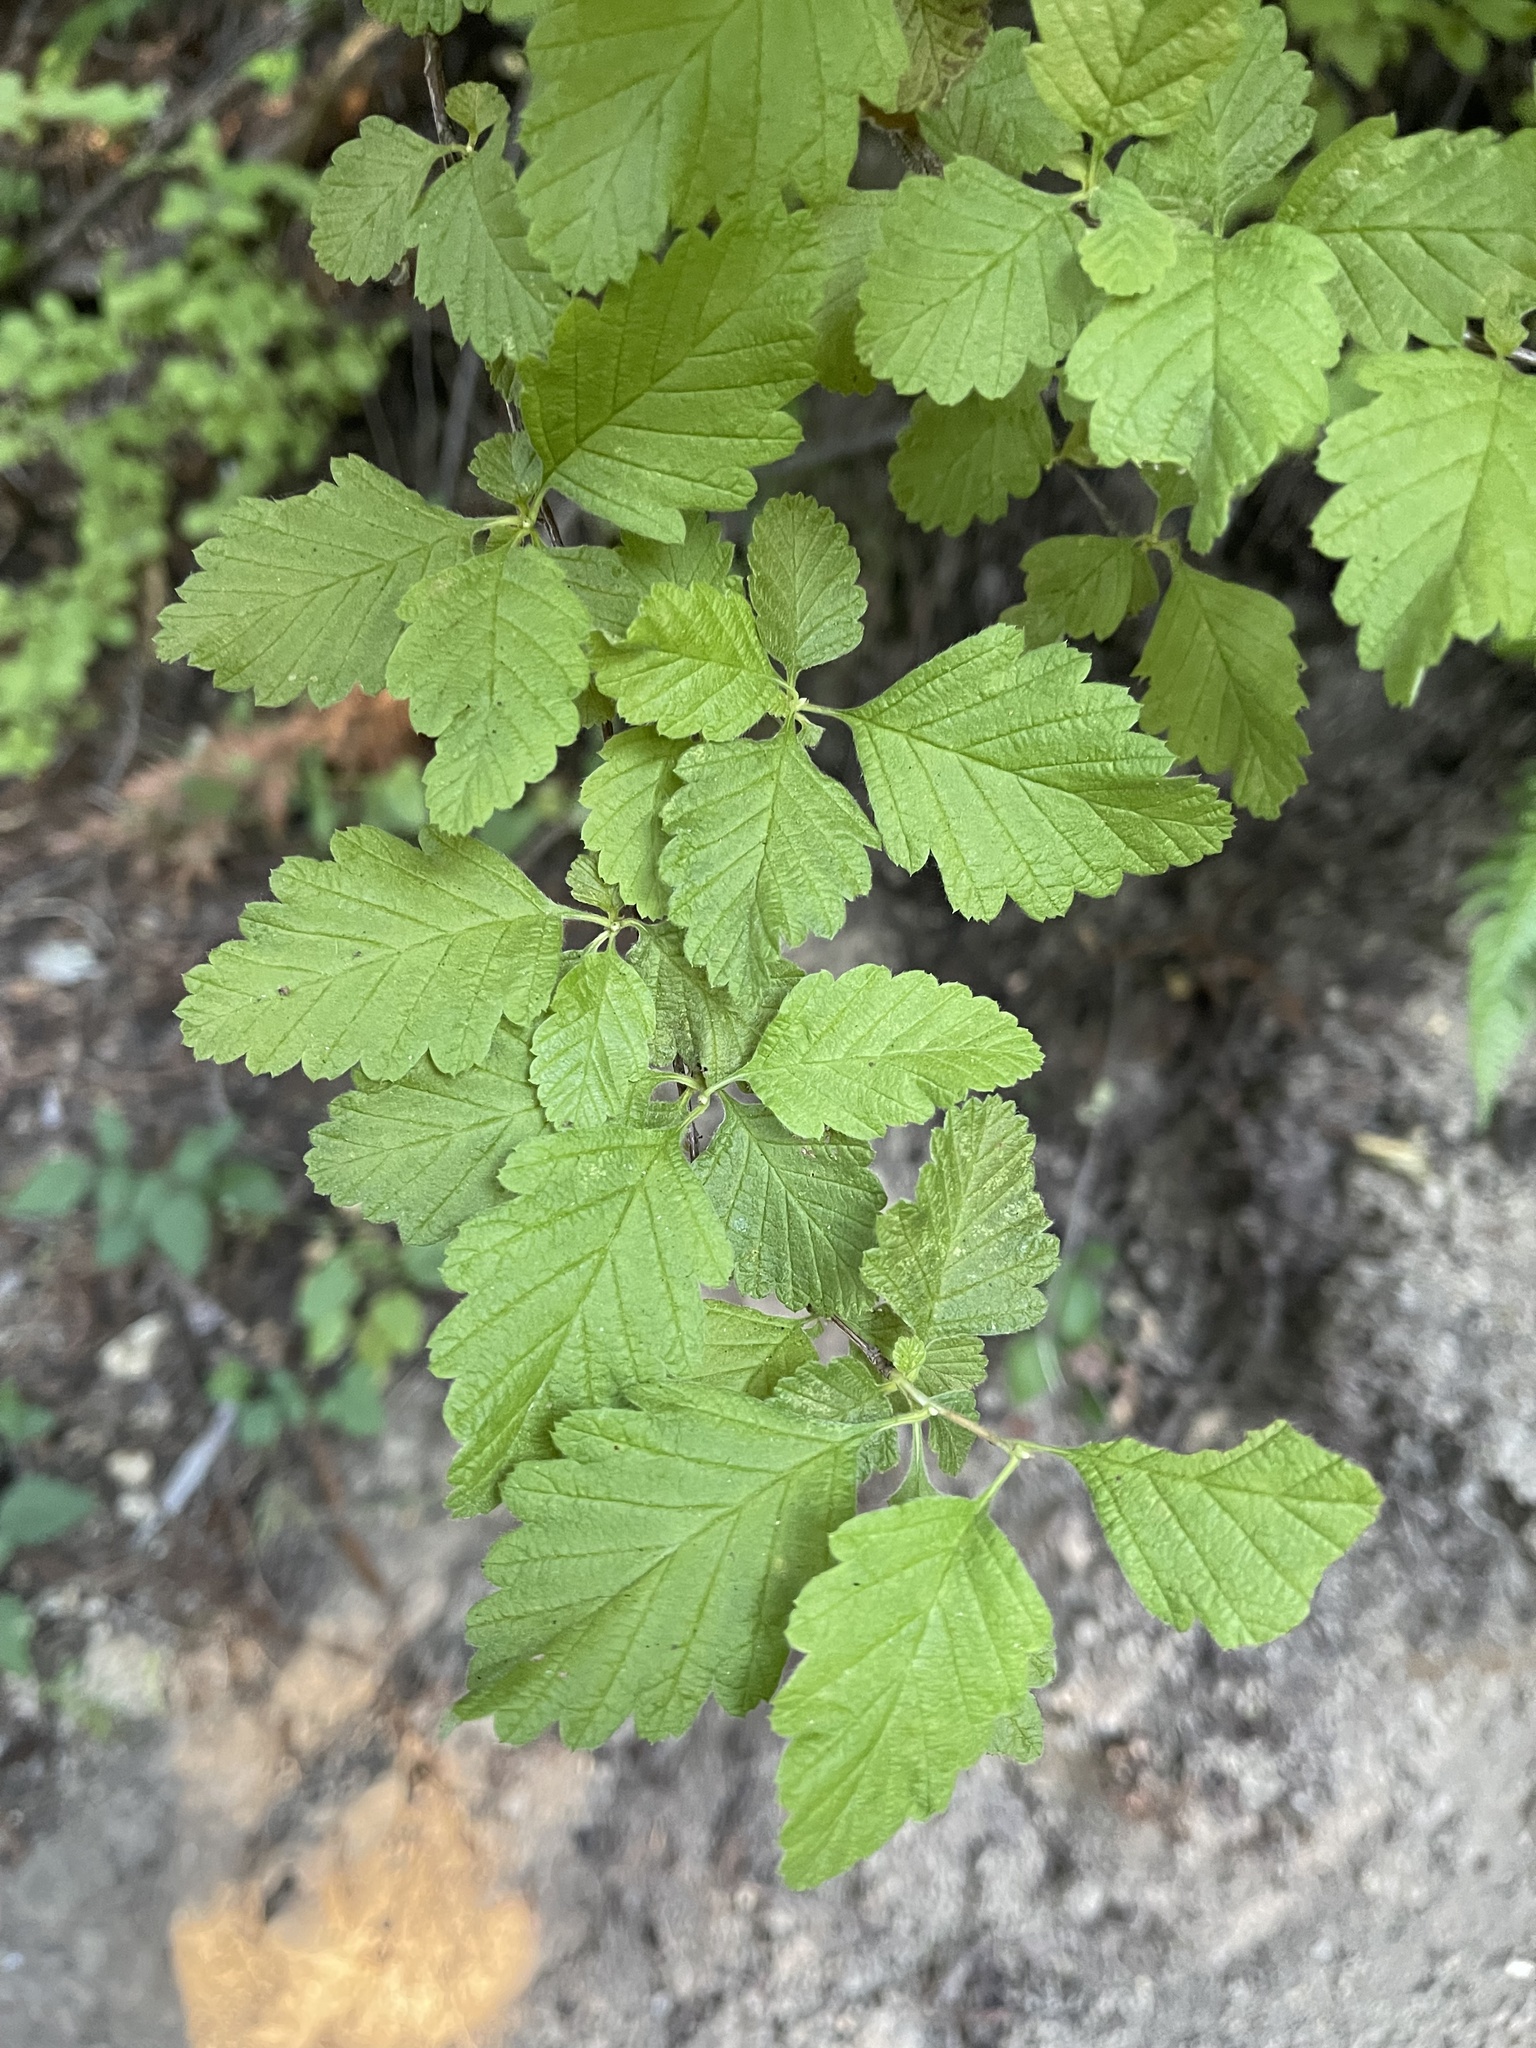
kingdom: Plantae
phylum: Tracheophyta
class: Magnoliopsida
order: Rosales
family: Rosaceae
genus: Holodiscus
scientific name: Holodiscus discolor
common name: Oceanspray
